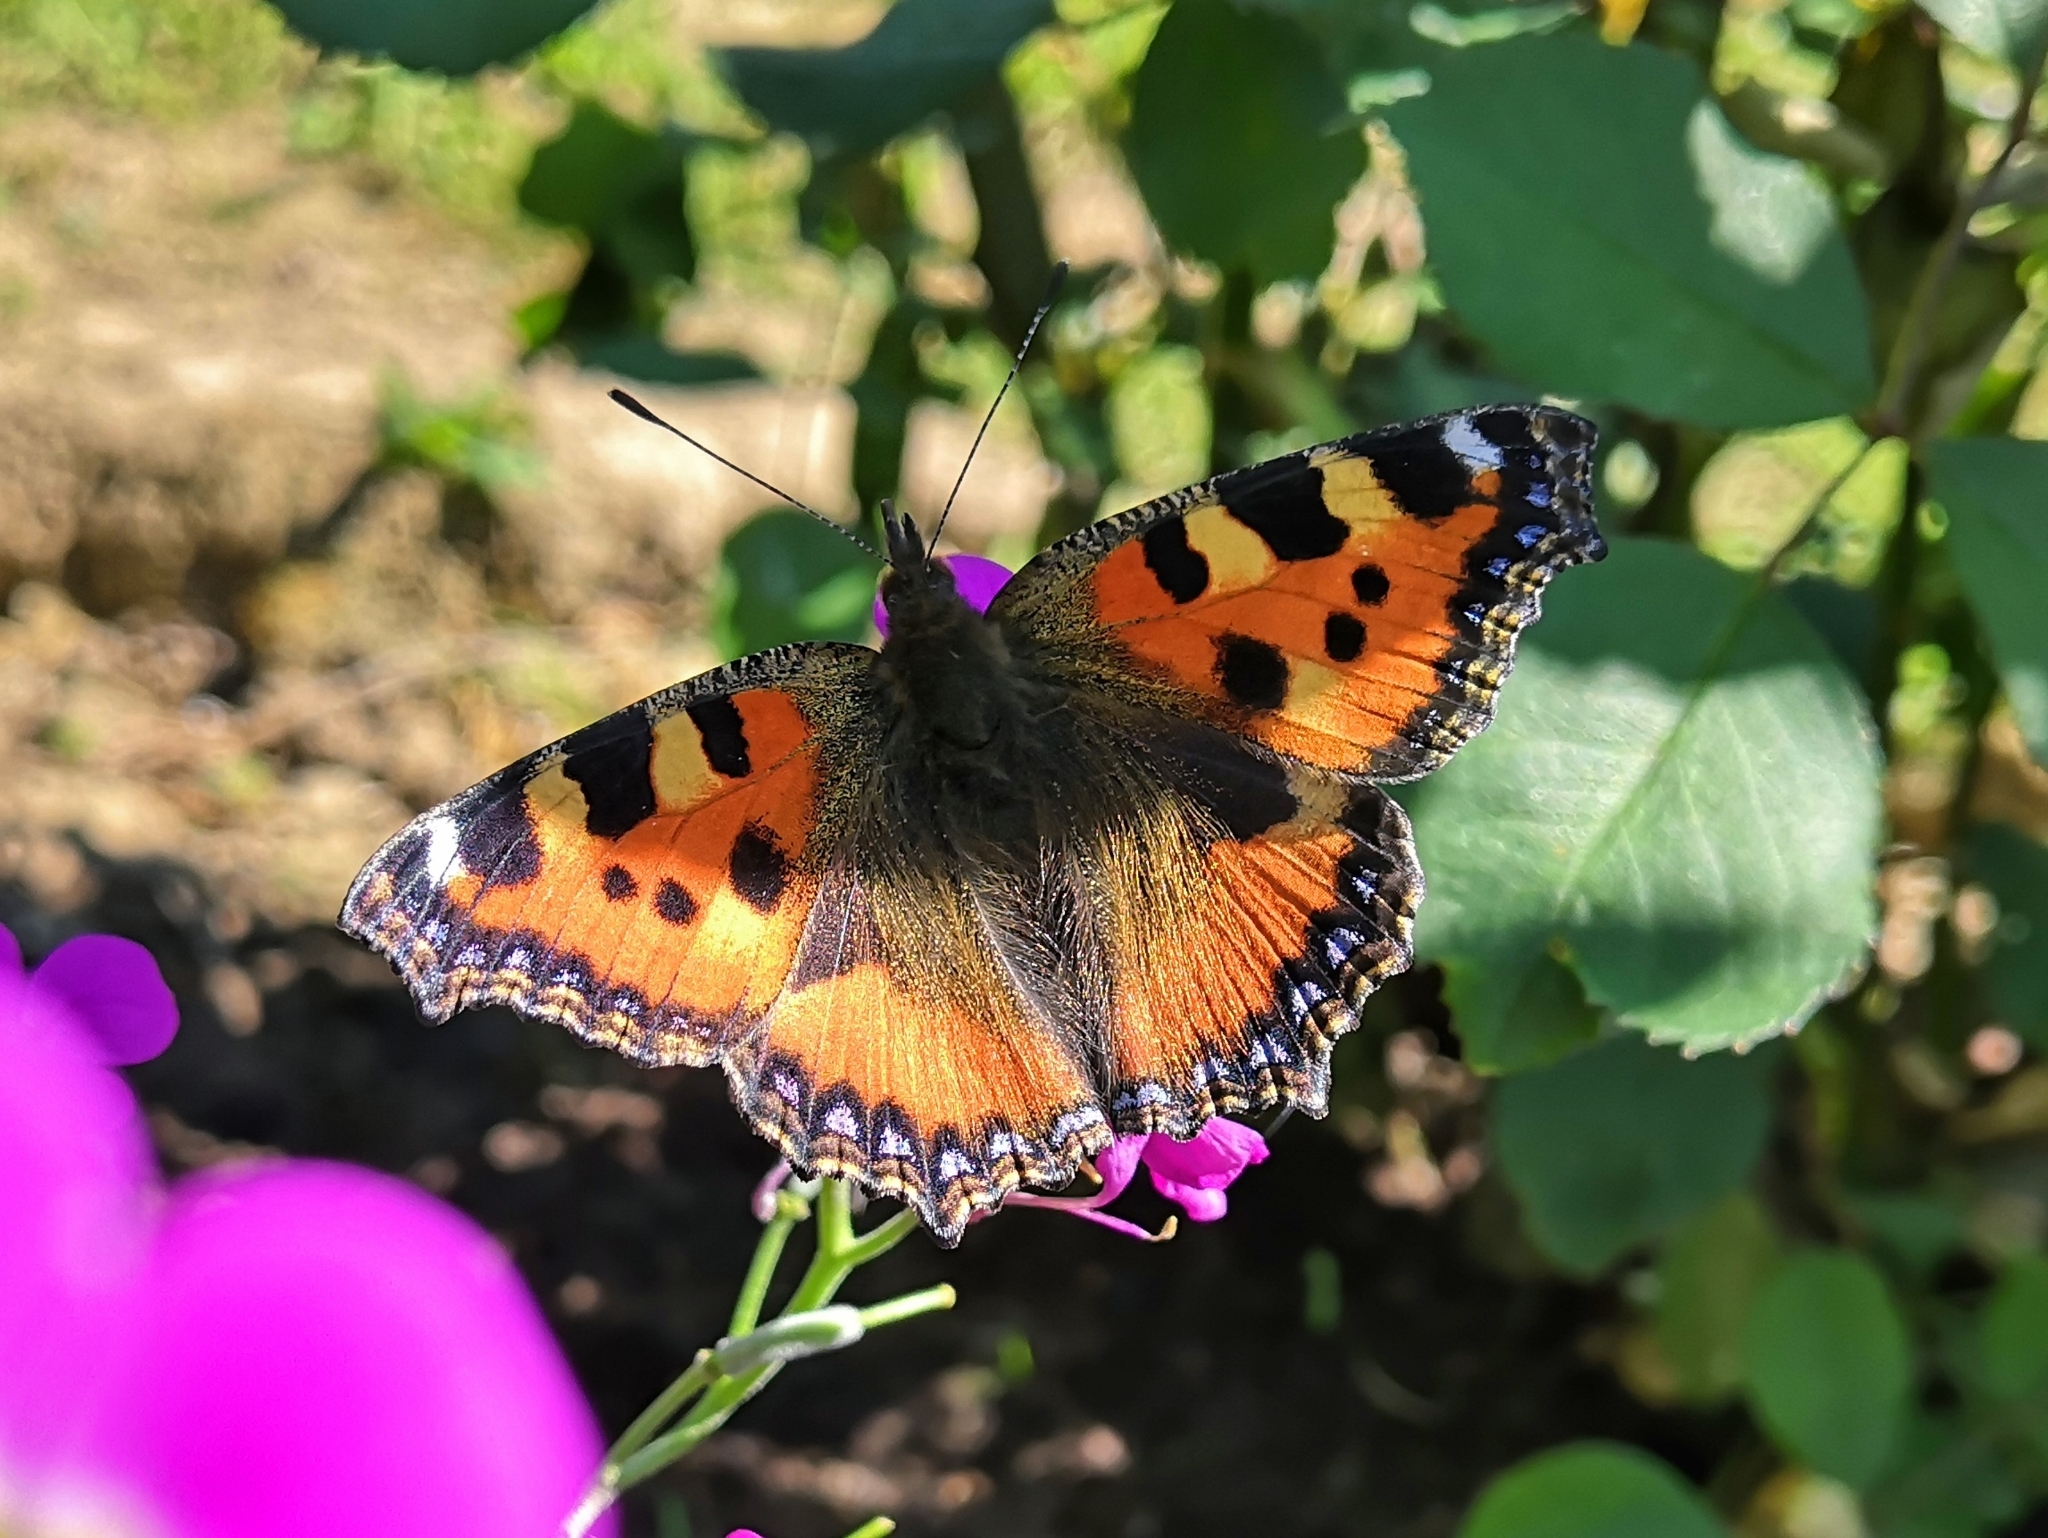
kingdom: Animalia
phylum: Arthropoda
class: Insecta
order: Lepidoptera
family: Nymphalidae
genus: Aglais
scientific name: Aglais urticae
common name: Small tortoiseshell
